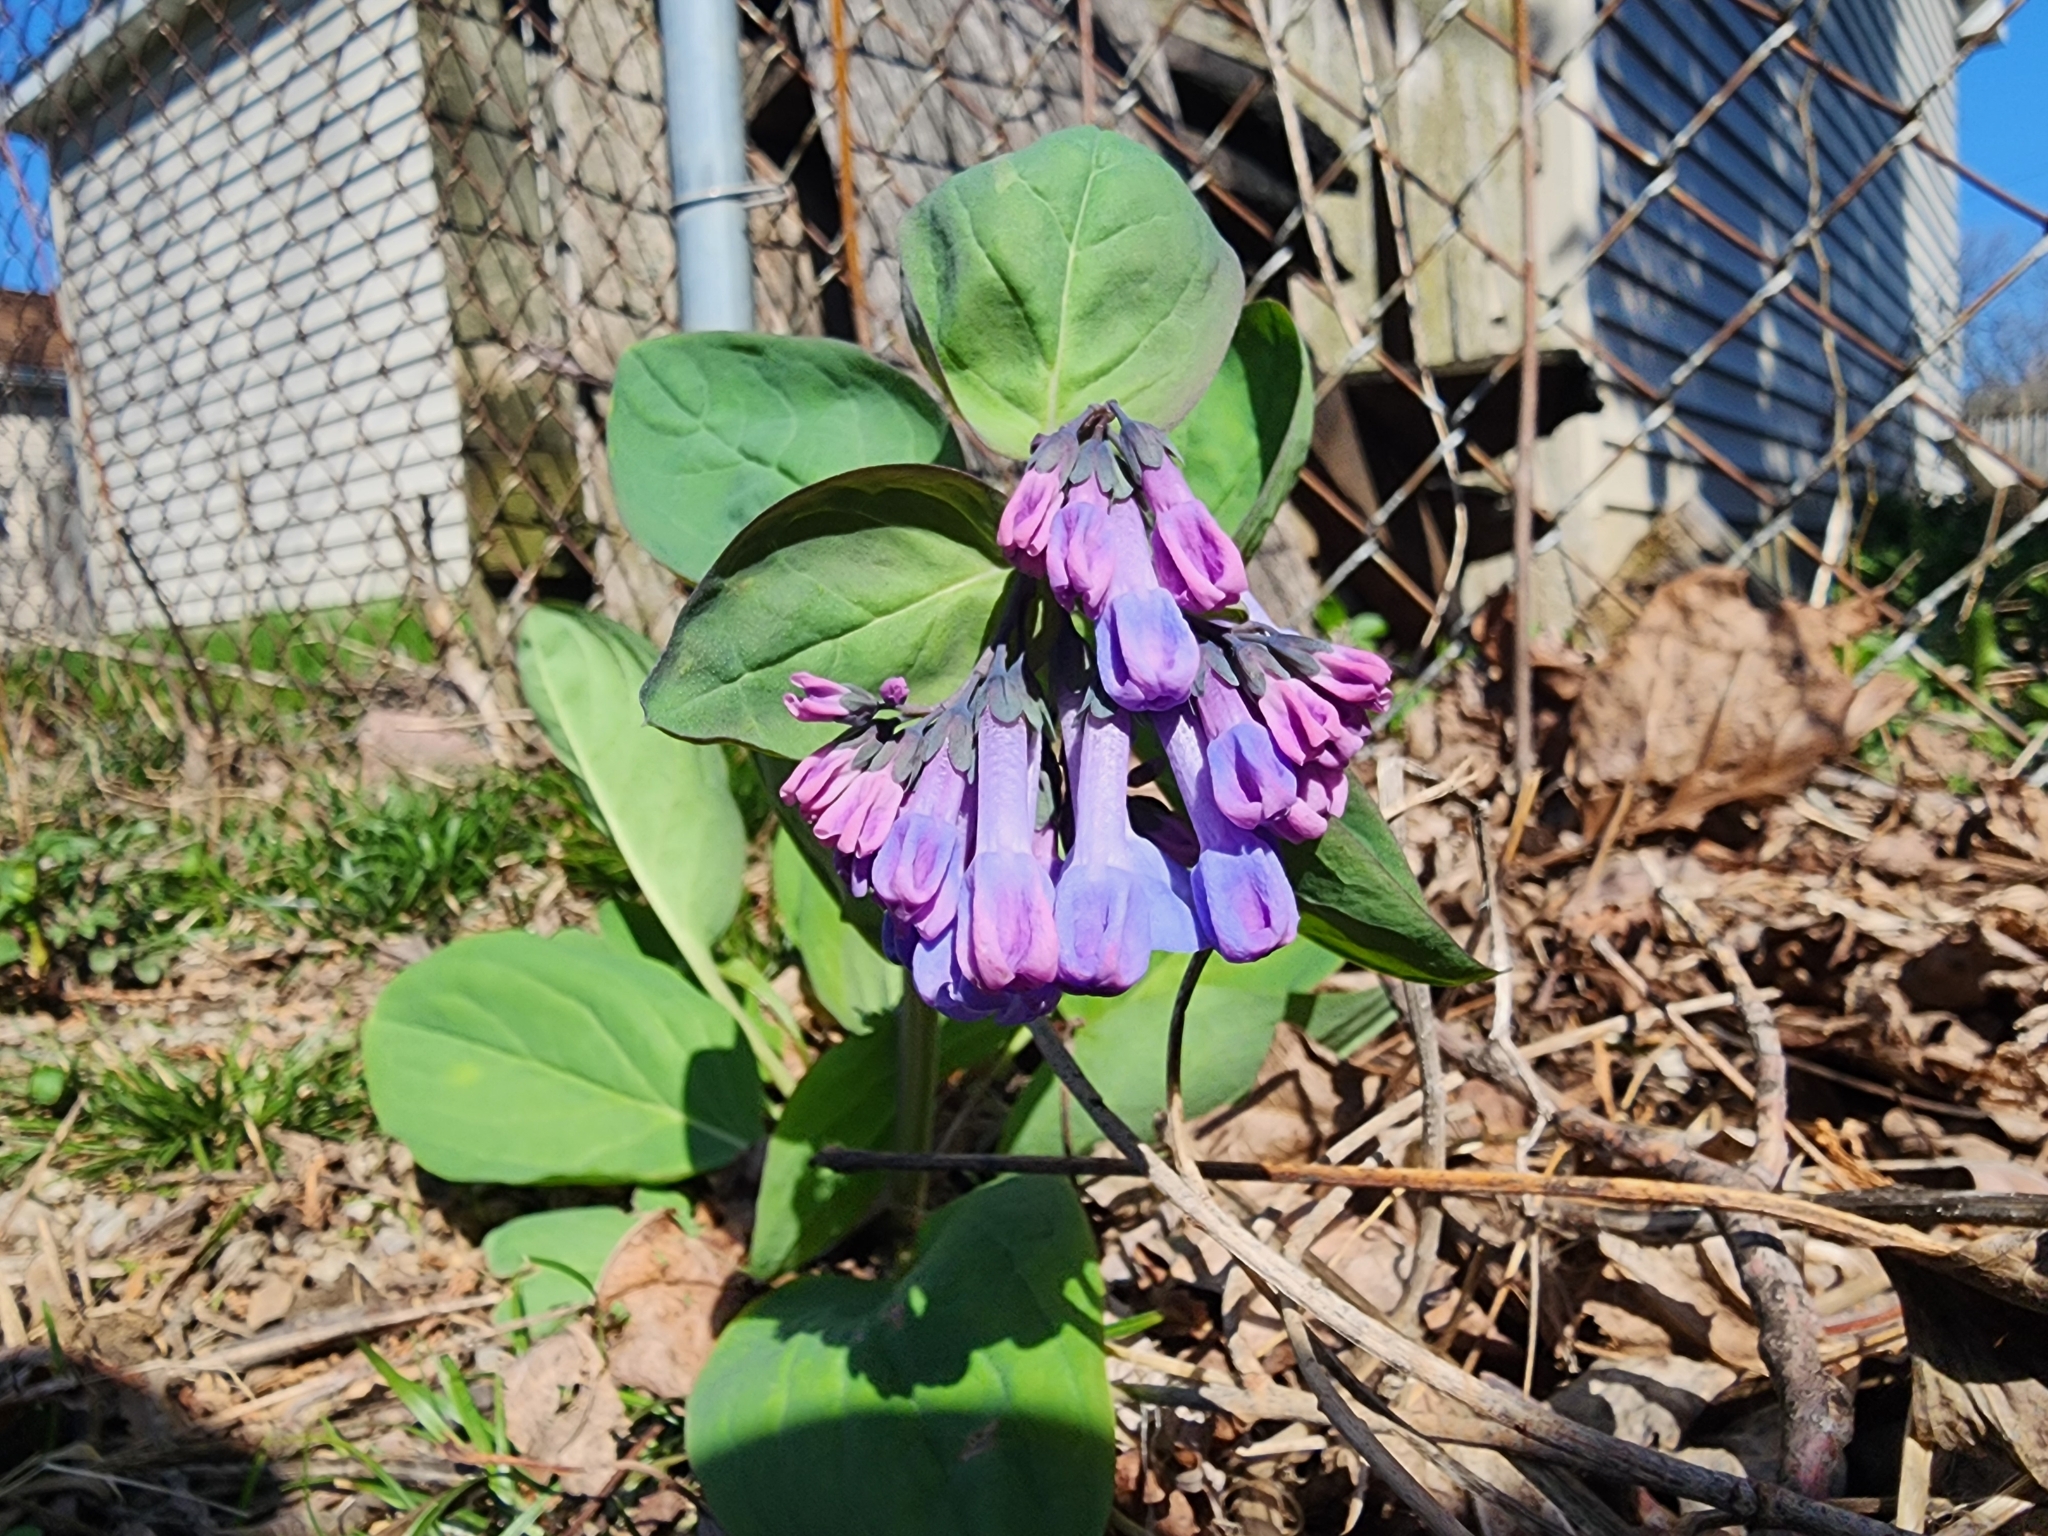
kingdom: Plantae
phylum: Tracheophyta
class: Magnoliopsida
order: Boraginales
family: Boraginaceae
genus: Mertensia
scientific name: Mertensia virginica
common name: Virginia bluebells
